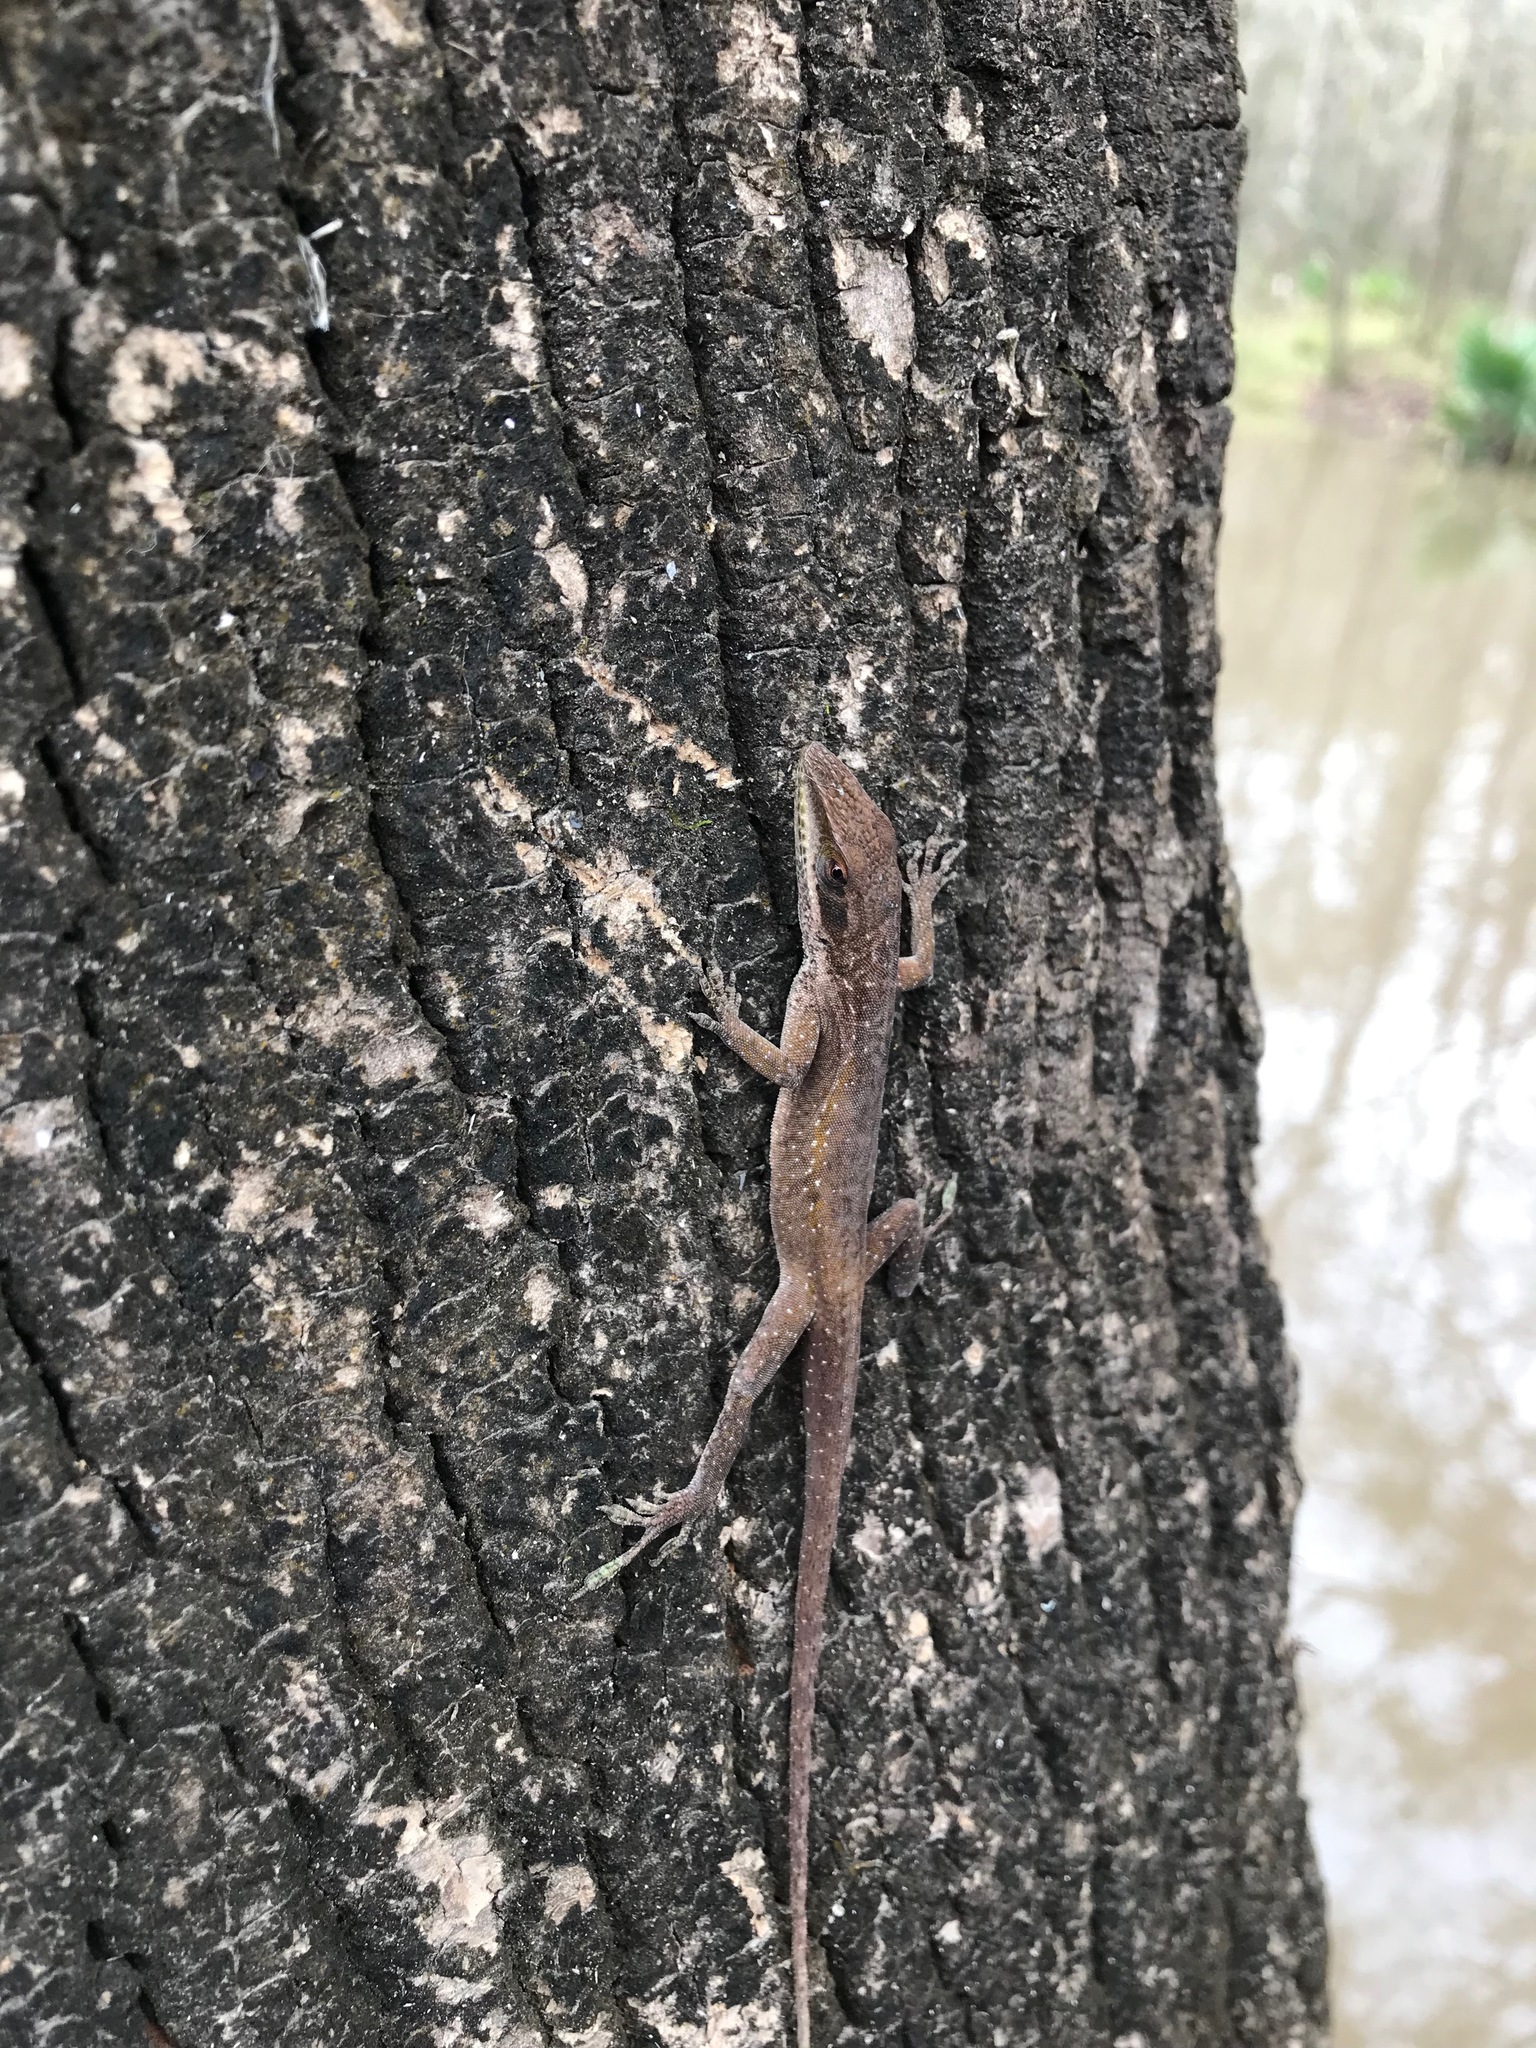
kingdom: Animalia
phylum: Chordata
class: Squamata
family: Dactyloidae
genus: Anolis
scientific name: Anolis carolinensis
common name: Green anole
